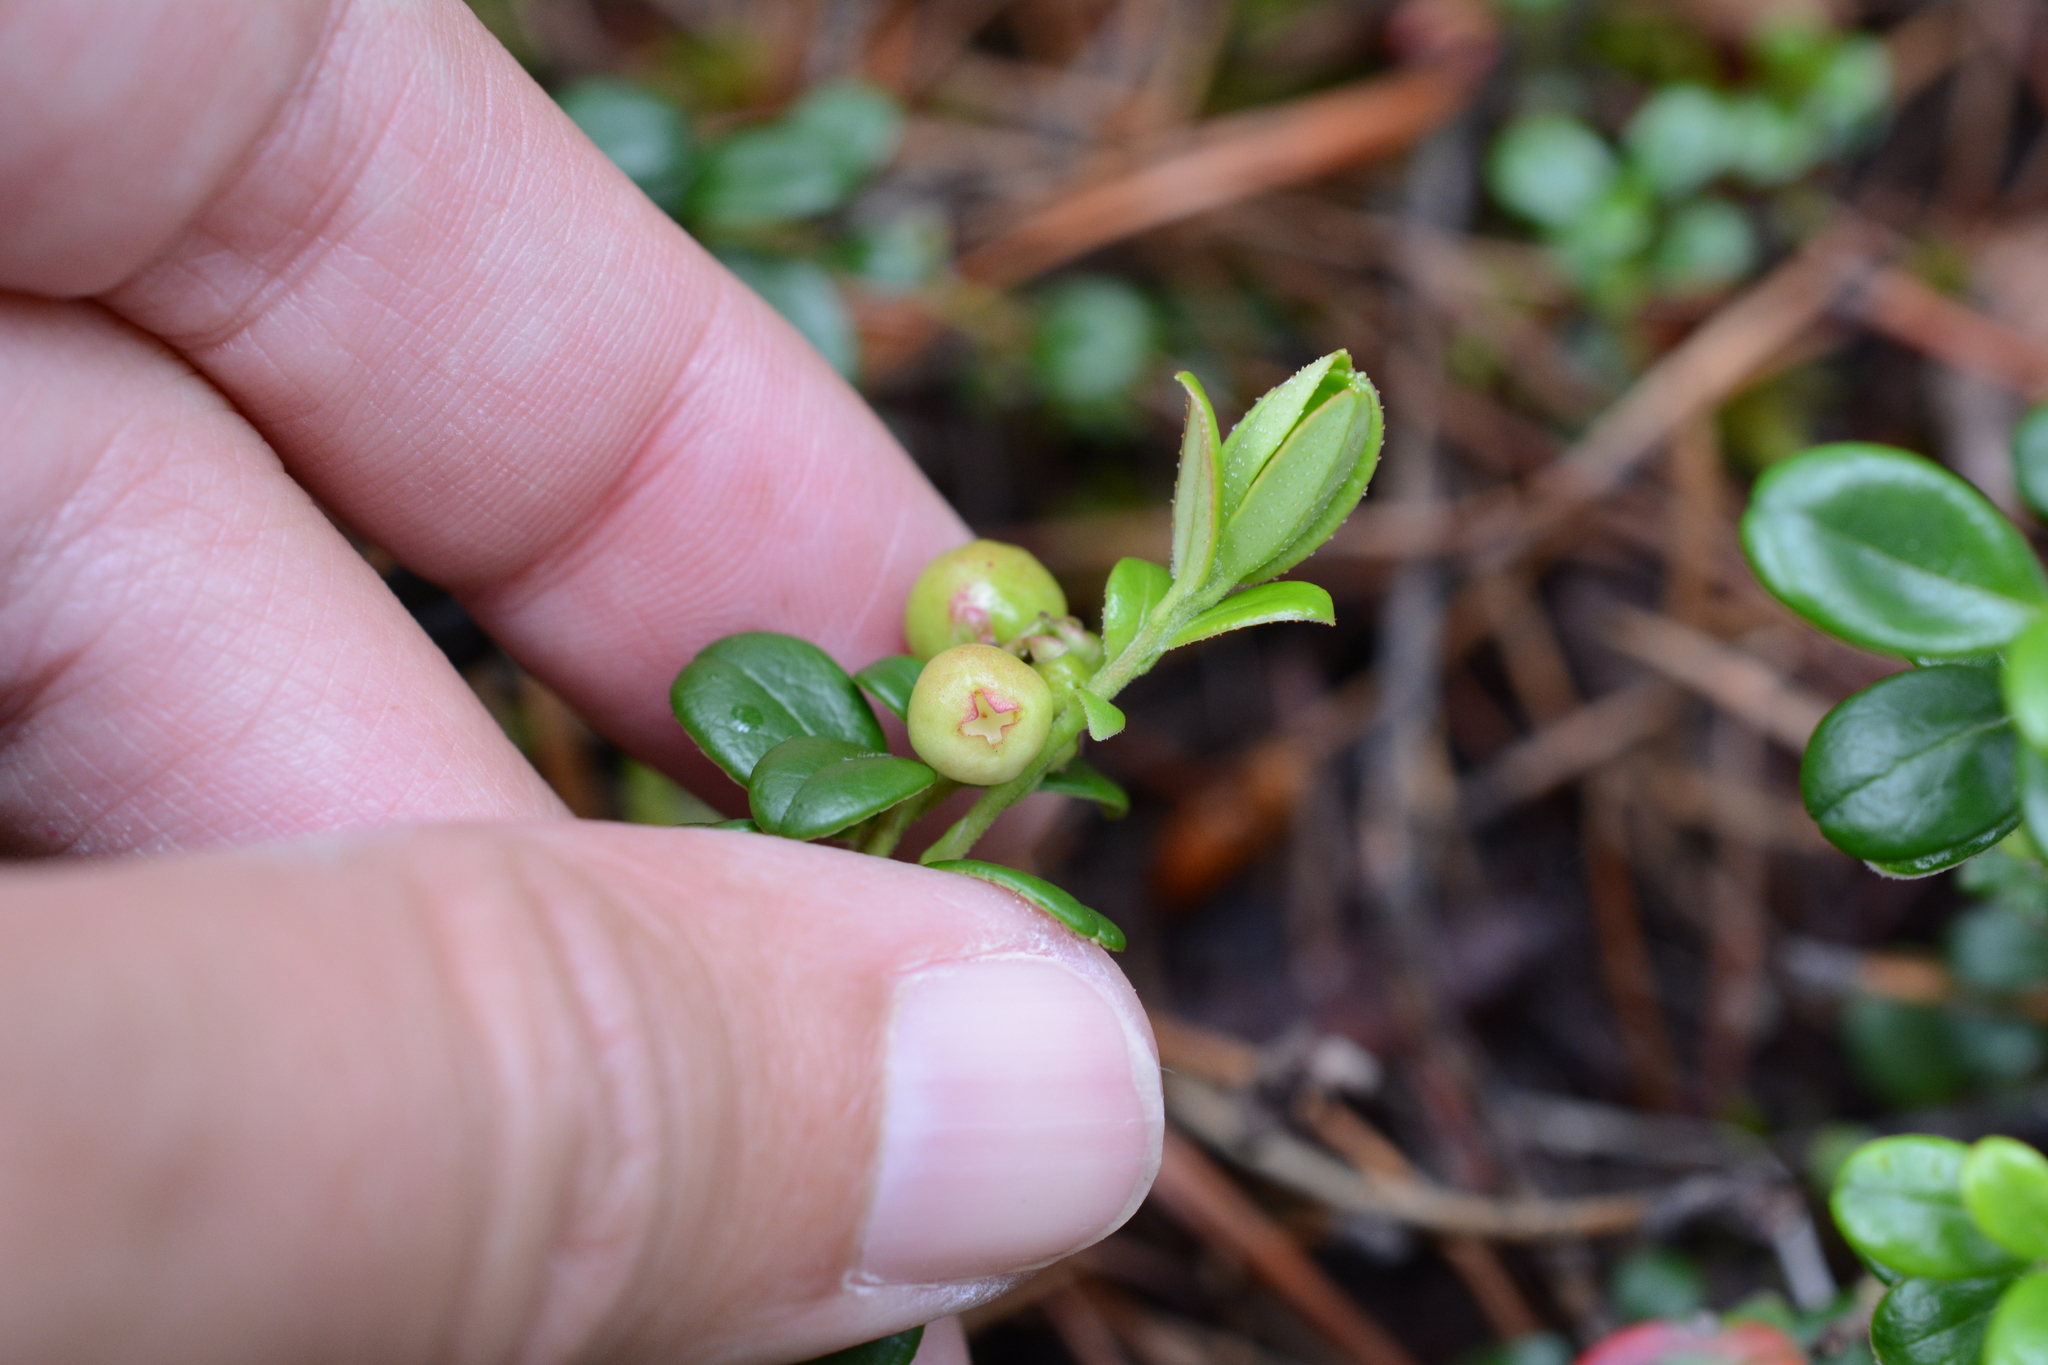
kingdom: Plantae
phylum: Tracheophyta
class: Magnoliopsida
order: Ericales
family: Ericaceae
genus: Vaccinium
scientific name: Vaccinium vitis-idaea
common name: Cowberry
